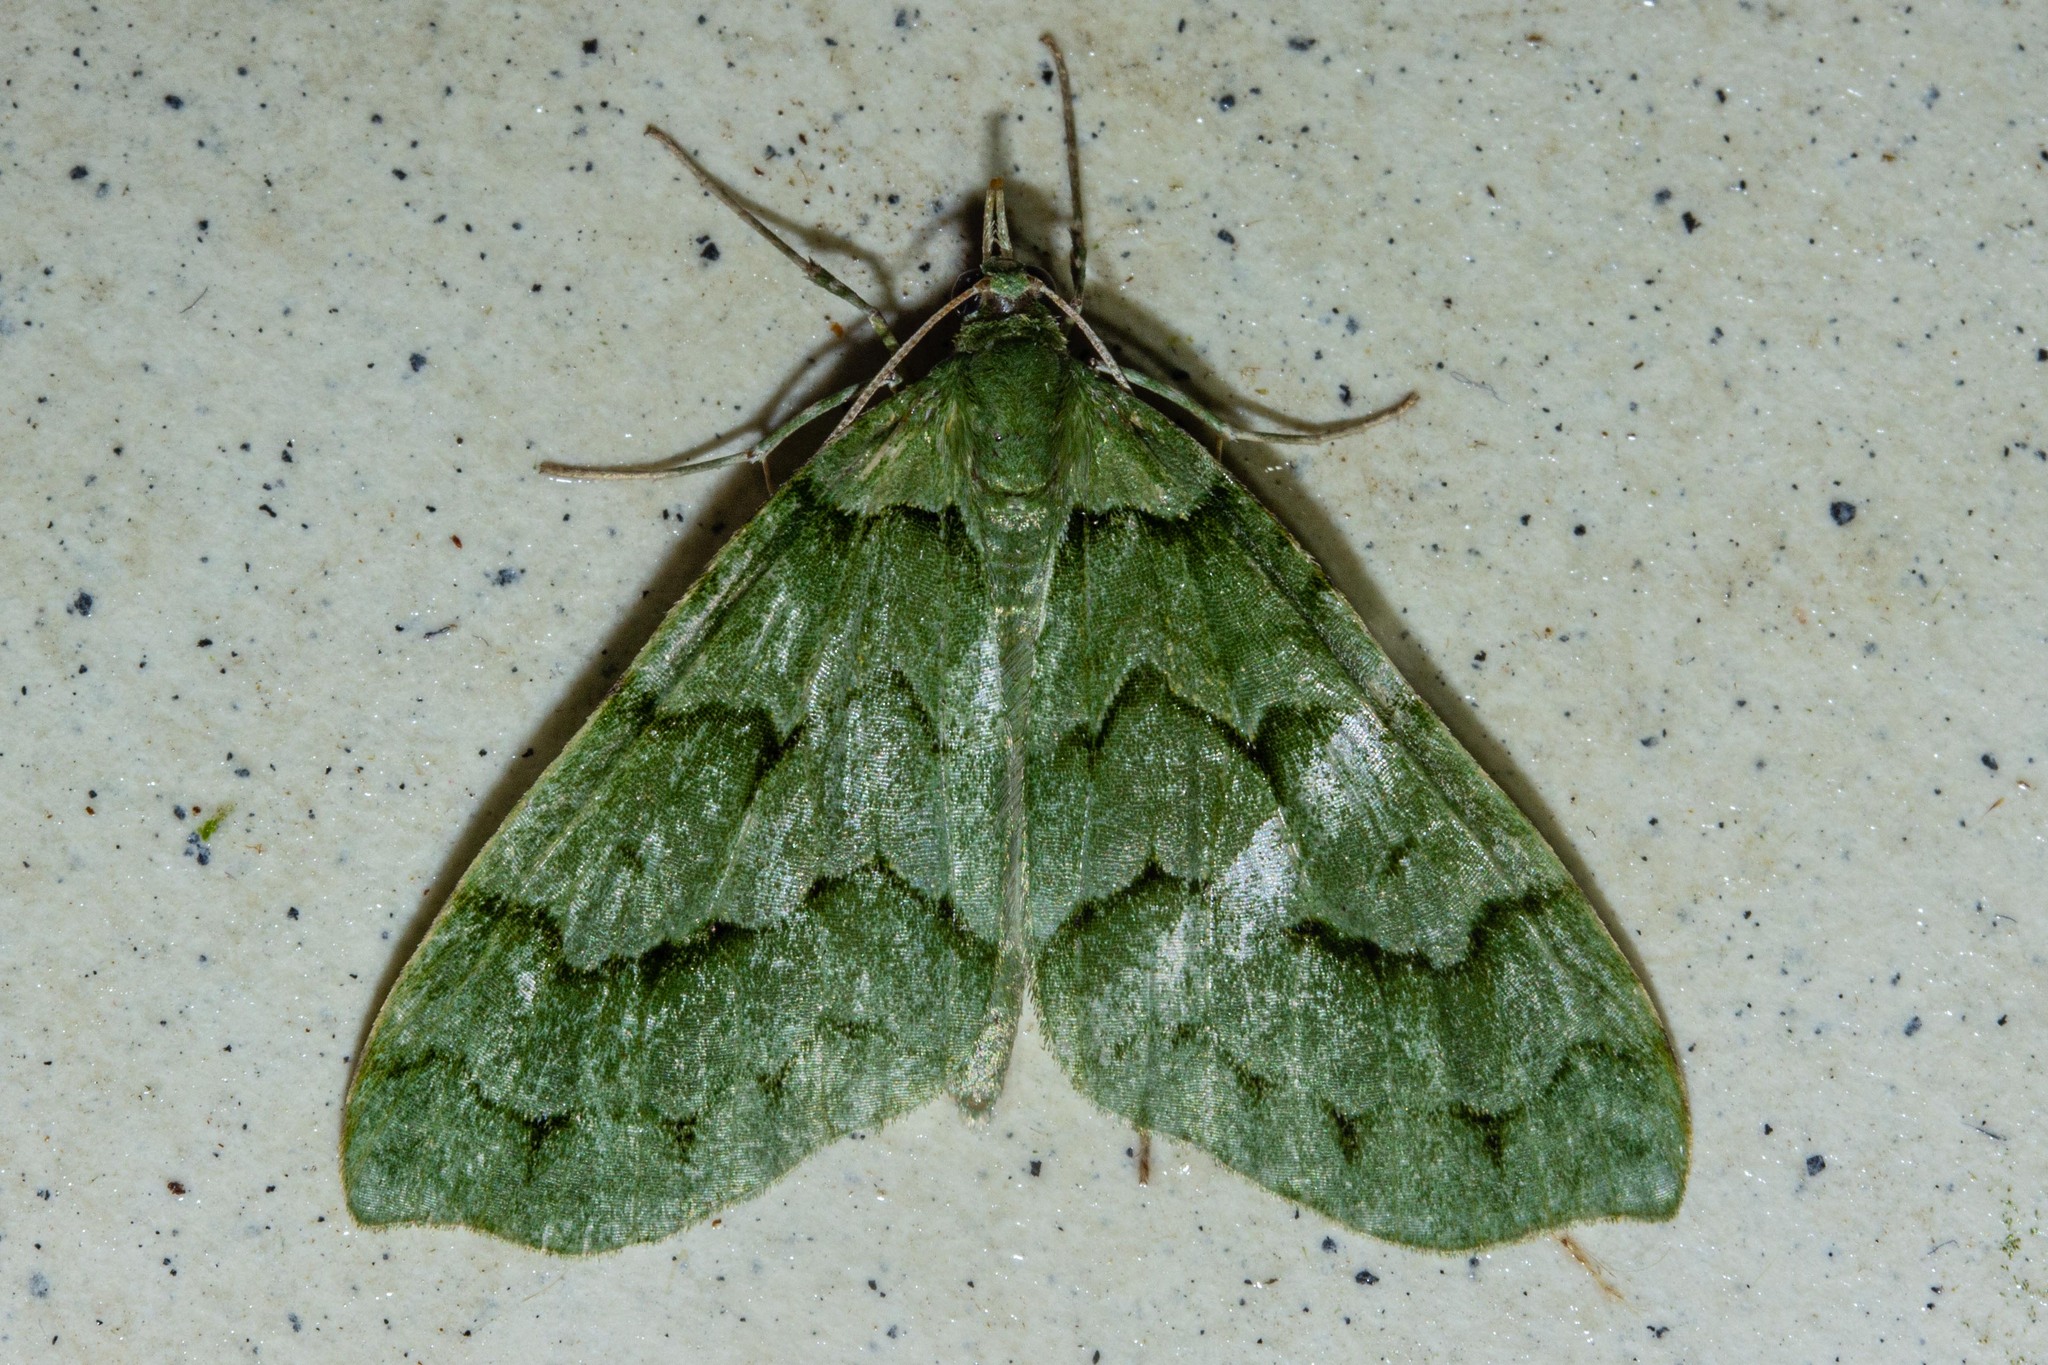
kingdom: Animalia
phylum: Arthropoda
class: Insecta
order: Lepidoptera
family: Geometridae
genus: Tatosoma
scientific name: Tatosoma lestevata
